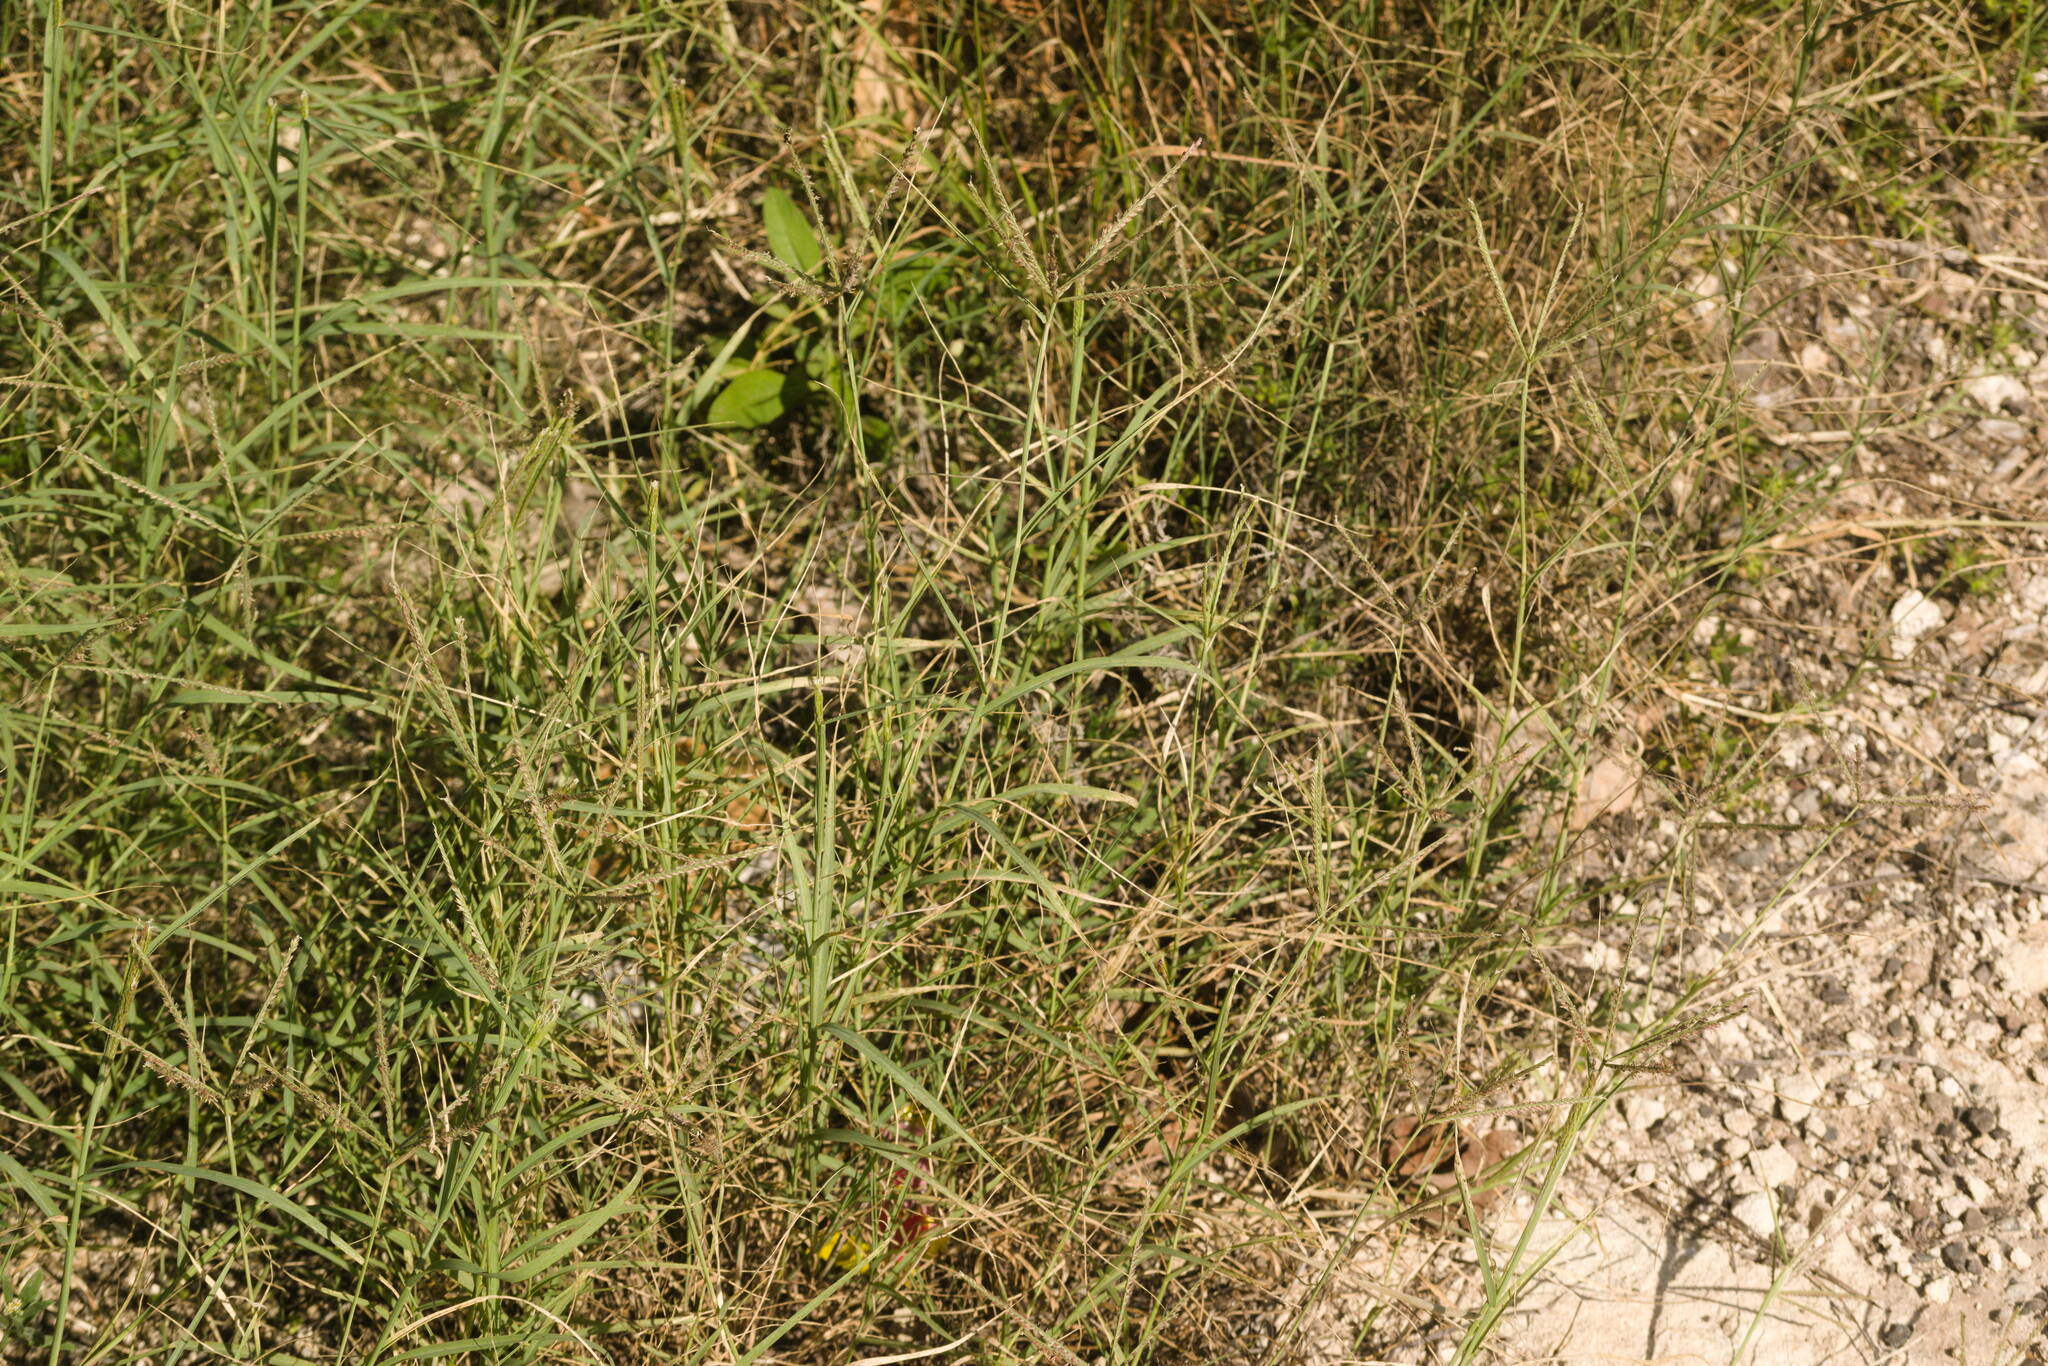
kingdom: Plantae
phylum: Tracheophyta
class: Liliopsida
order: Poales
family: Poaceae
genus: Cynodon
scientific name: Cynodon dactylon
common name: Bermuda grass
